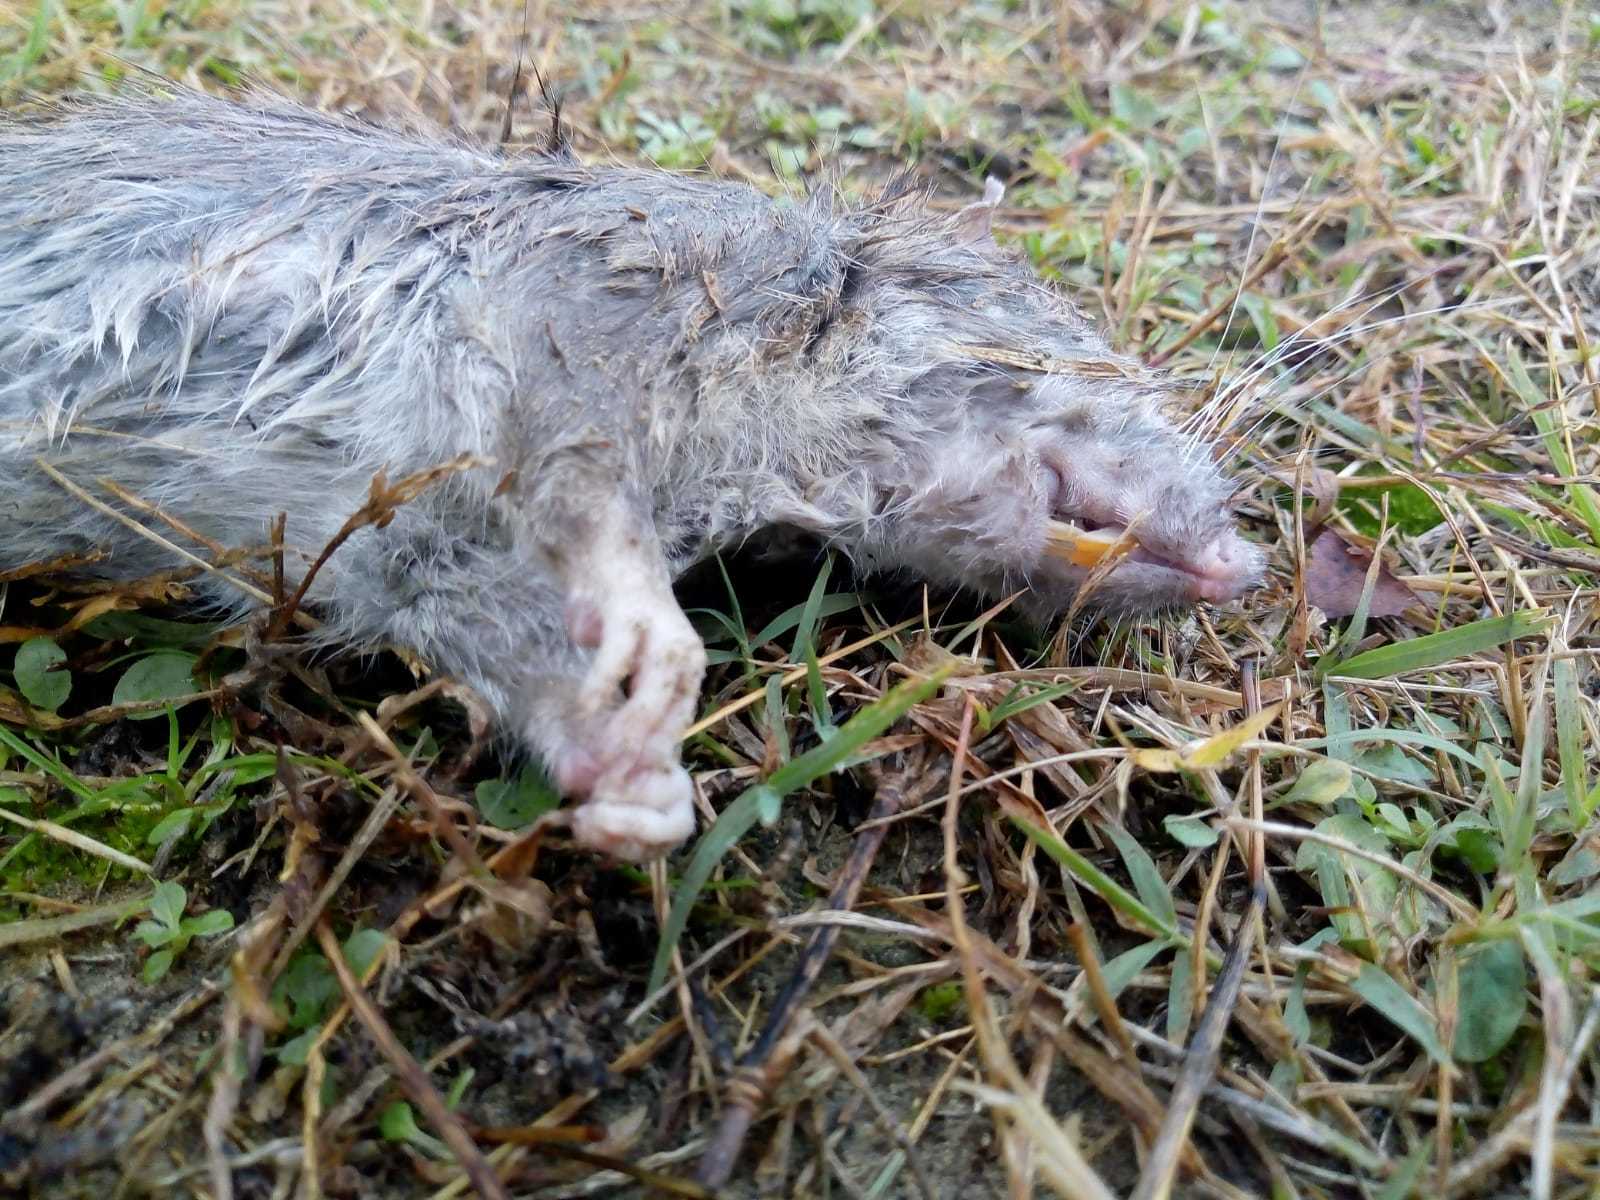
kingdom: Animalia
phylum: Chordata
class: Mammalia
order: Rodentia
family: Muridae
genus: Rattus
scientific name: Rattus norvegicus
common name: Brown rat
